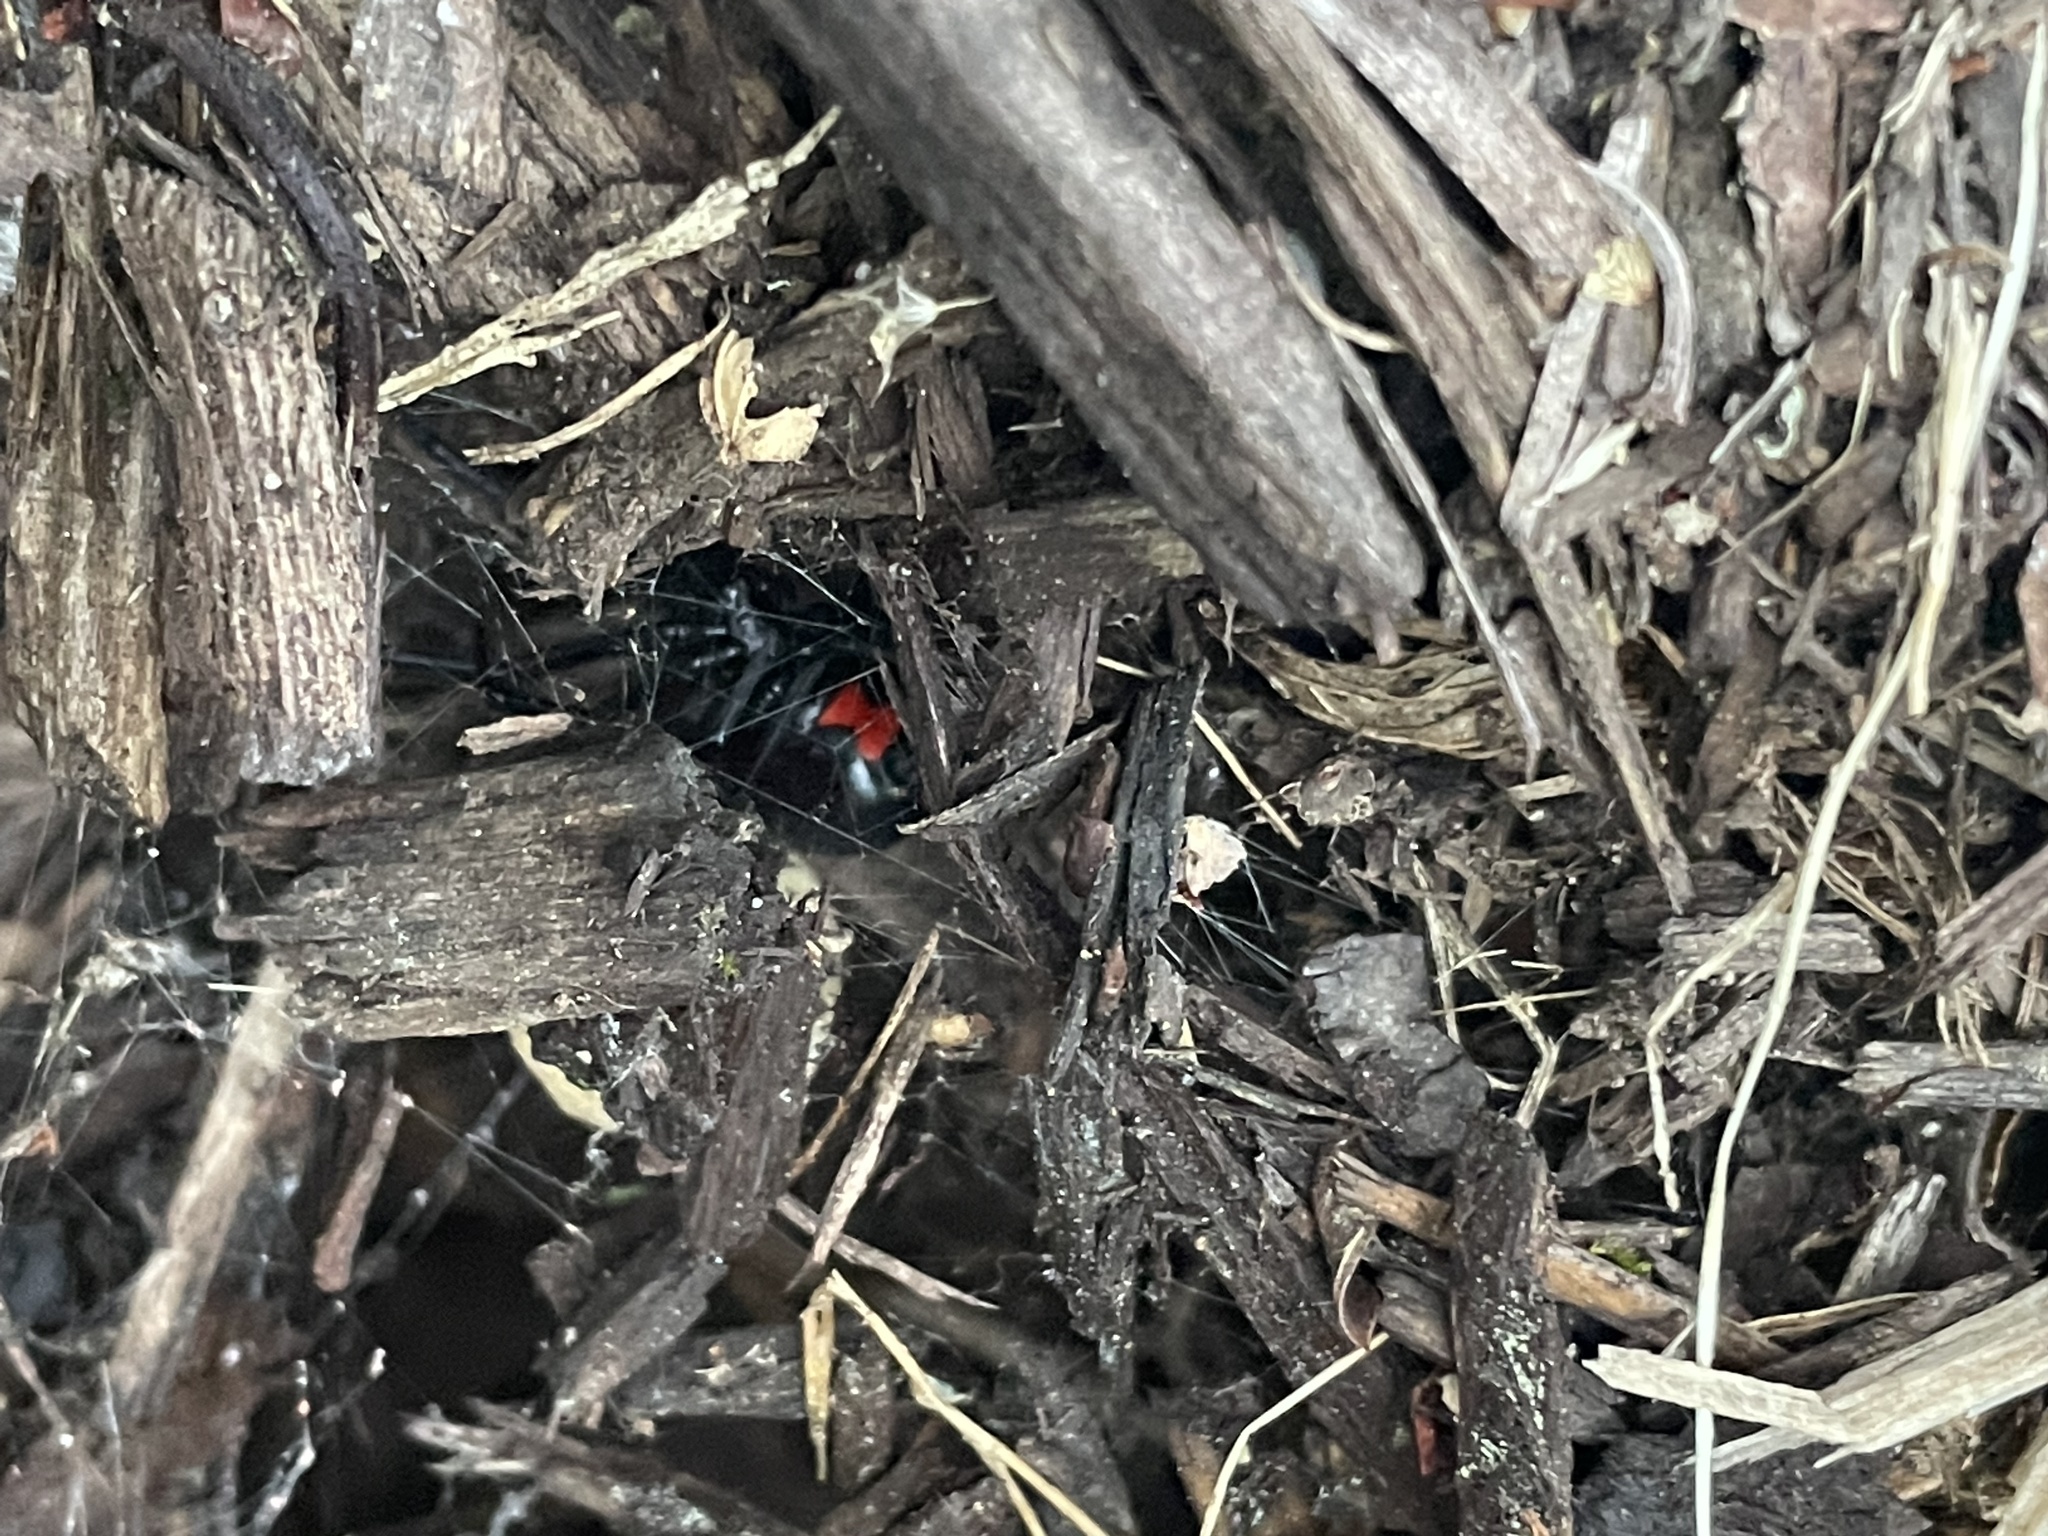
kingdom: Animalia
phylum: Arthropoda
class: Arachnida
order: Araneae
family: Theridiidae
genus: Latrodectus
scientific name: Latrodectus mactans
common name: Cobweb spiders
